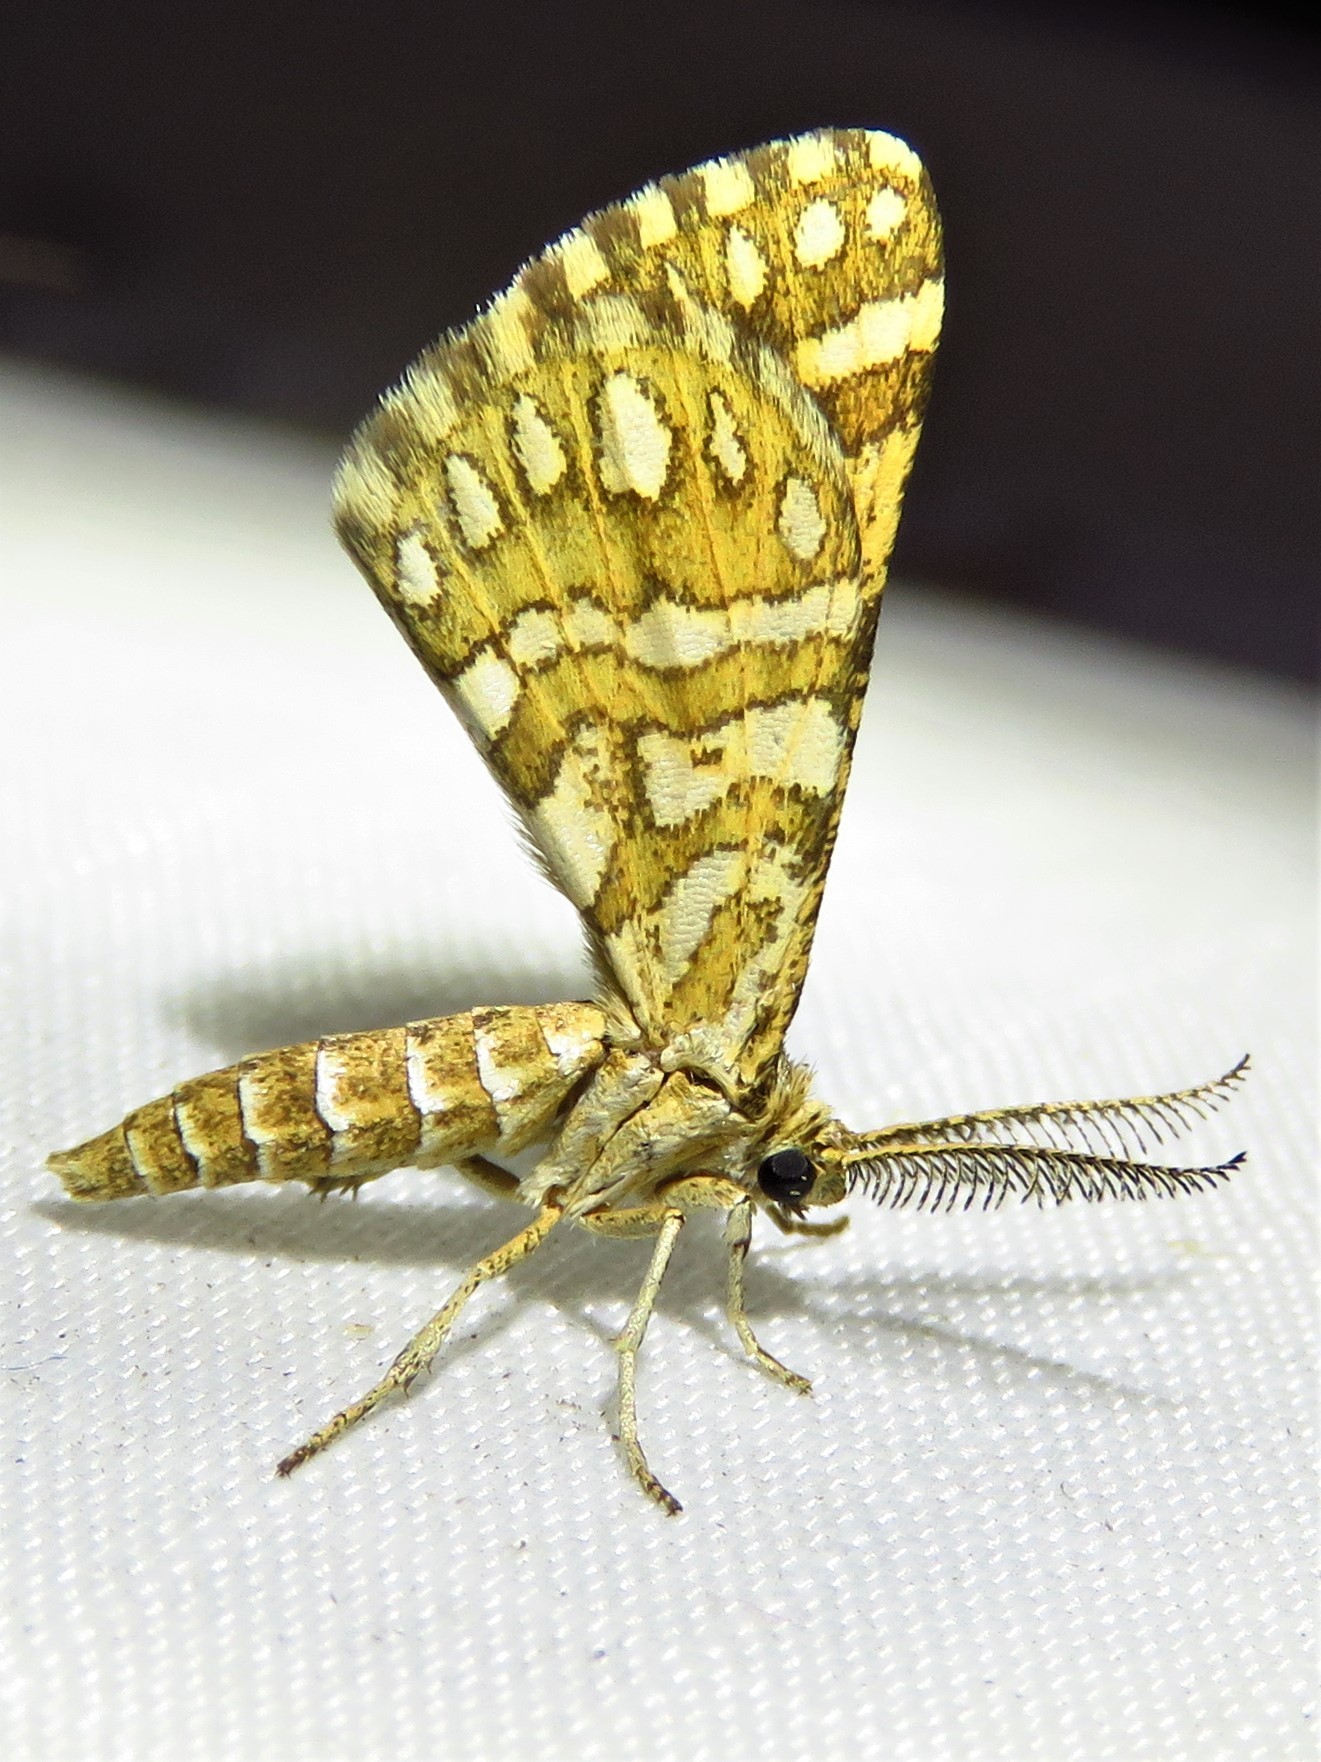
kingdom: Animalia
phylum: Arthropoda
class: Insecta
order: Lepidoptera
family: Geometridae
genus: Narraga
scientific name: Narraga fimetaria
